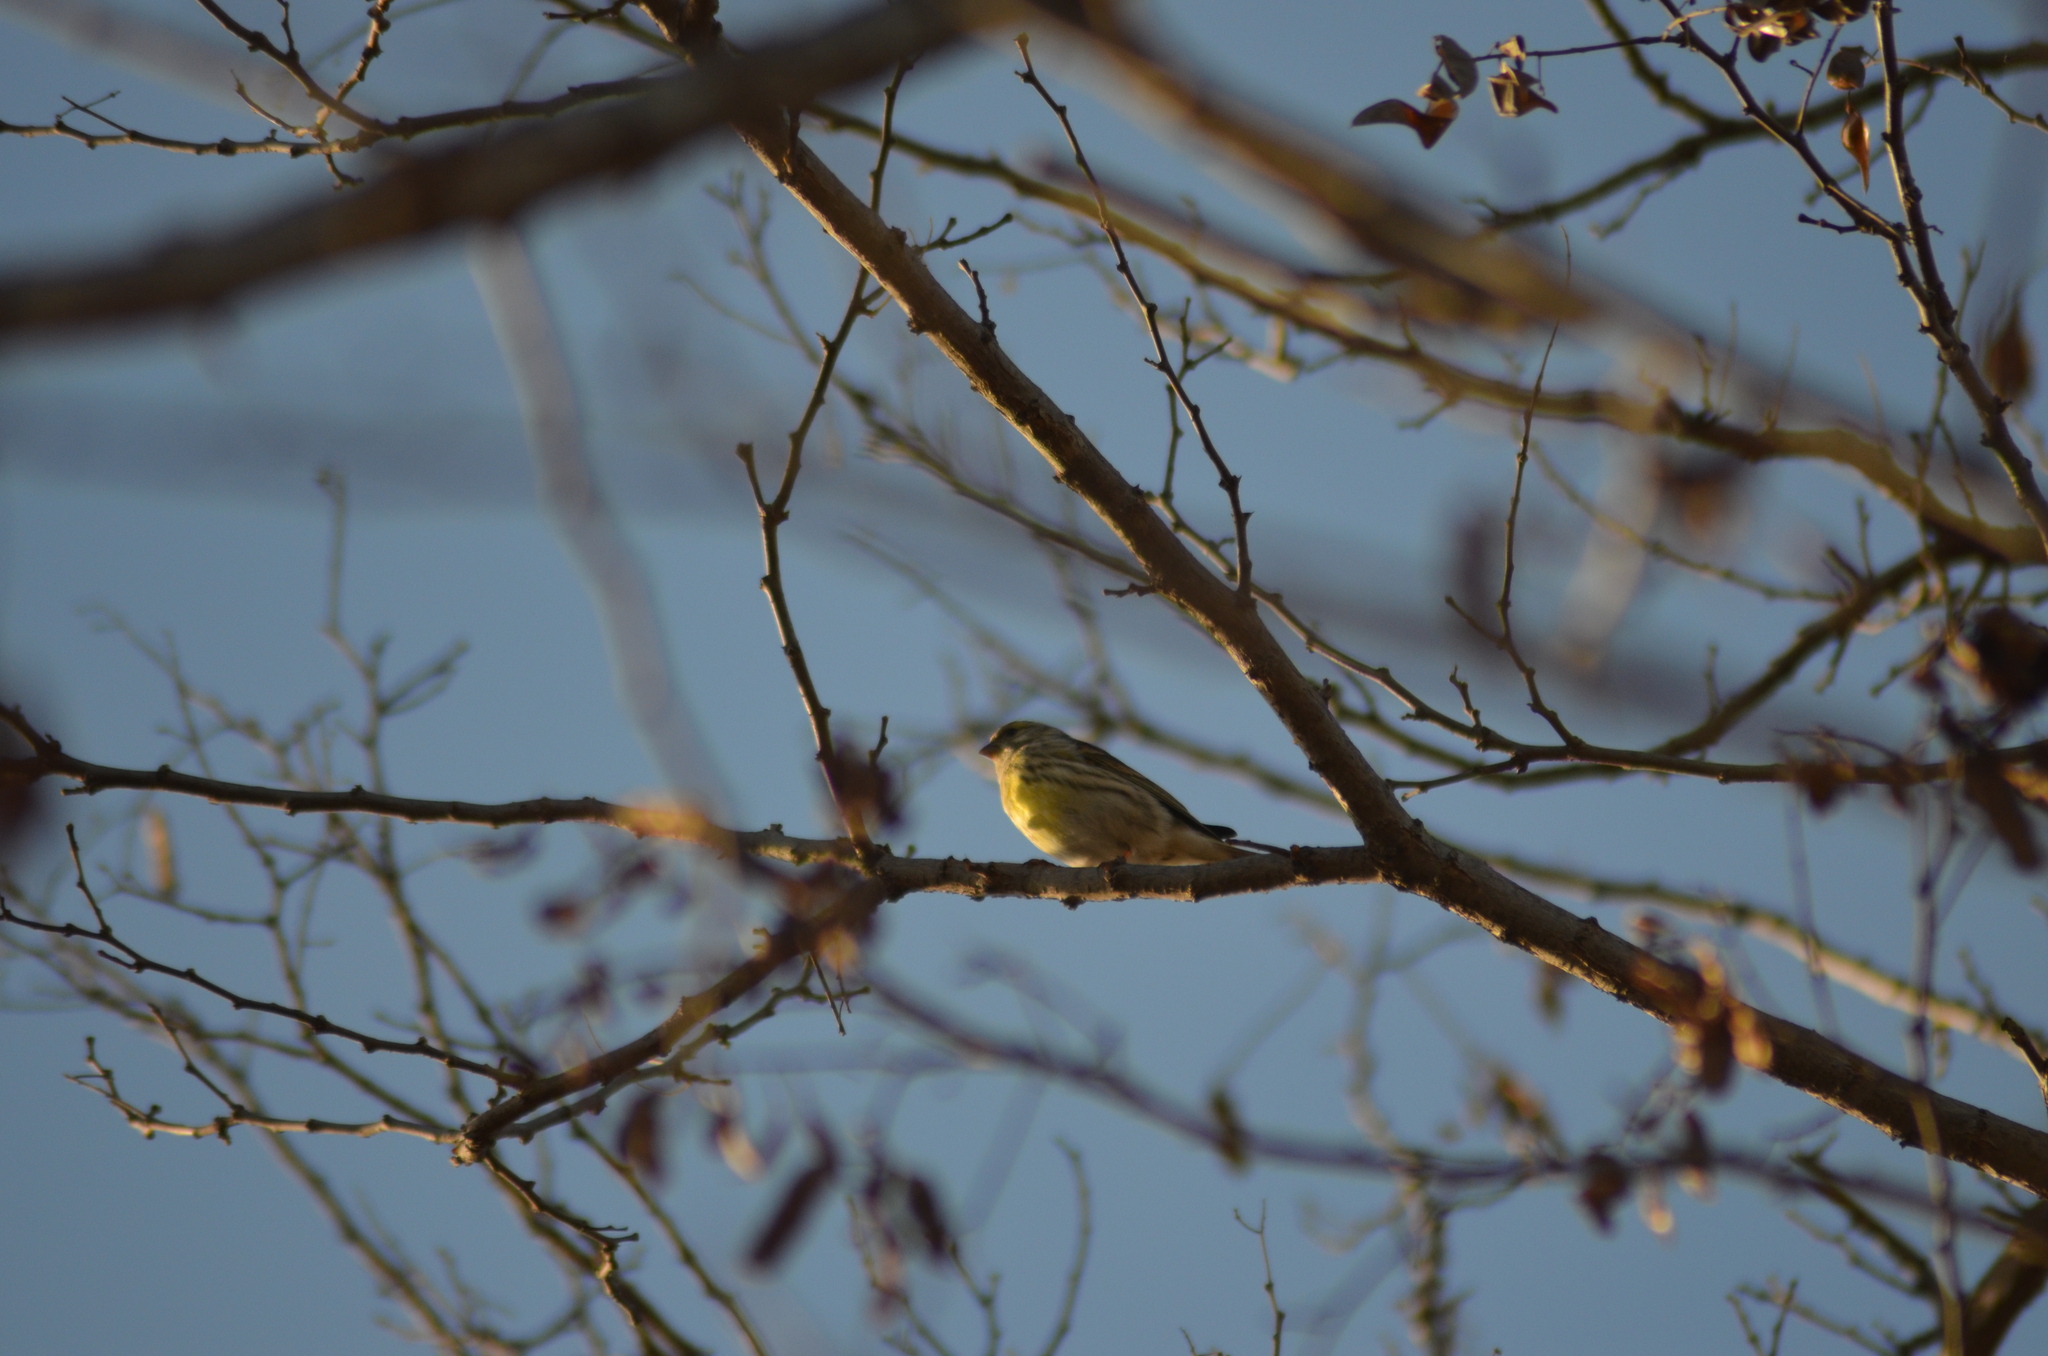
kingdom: Animalia
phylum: Chordata
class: Aves
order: Passeriformes
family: Fringillidae
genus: Serinus
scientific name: Serinus serinus
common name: European serin
